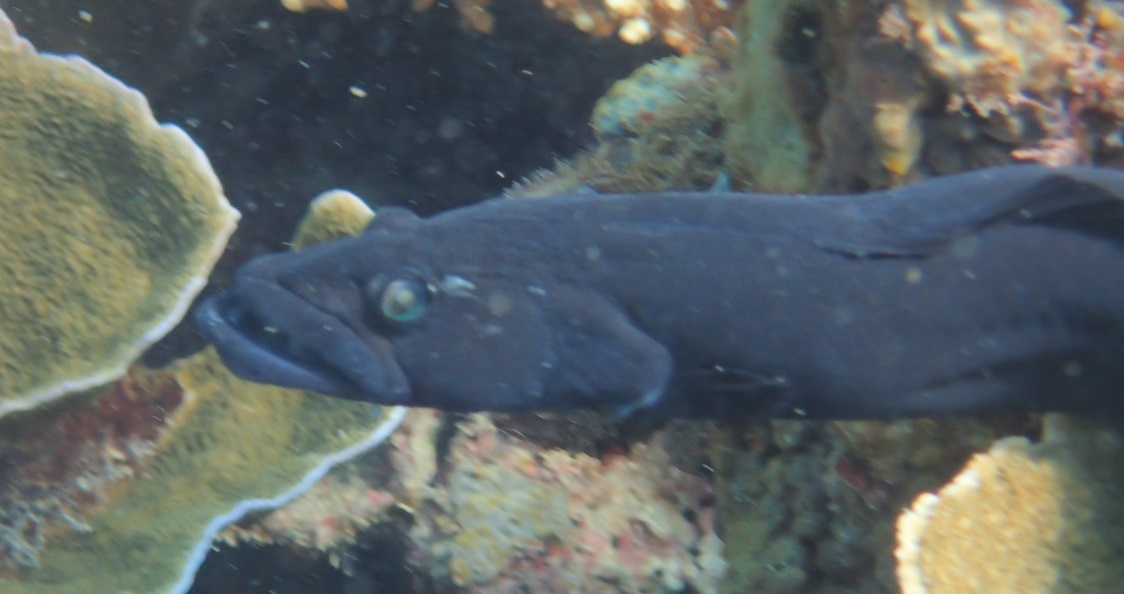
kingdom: Animalia
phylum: Chordata
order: Perciformes
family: Pseudochromidae
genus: Congrogadus
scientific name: Congrogadus subducens
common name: Carpet eel-blenny
